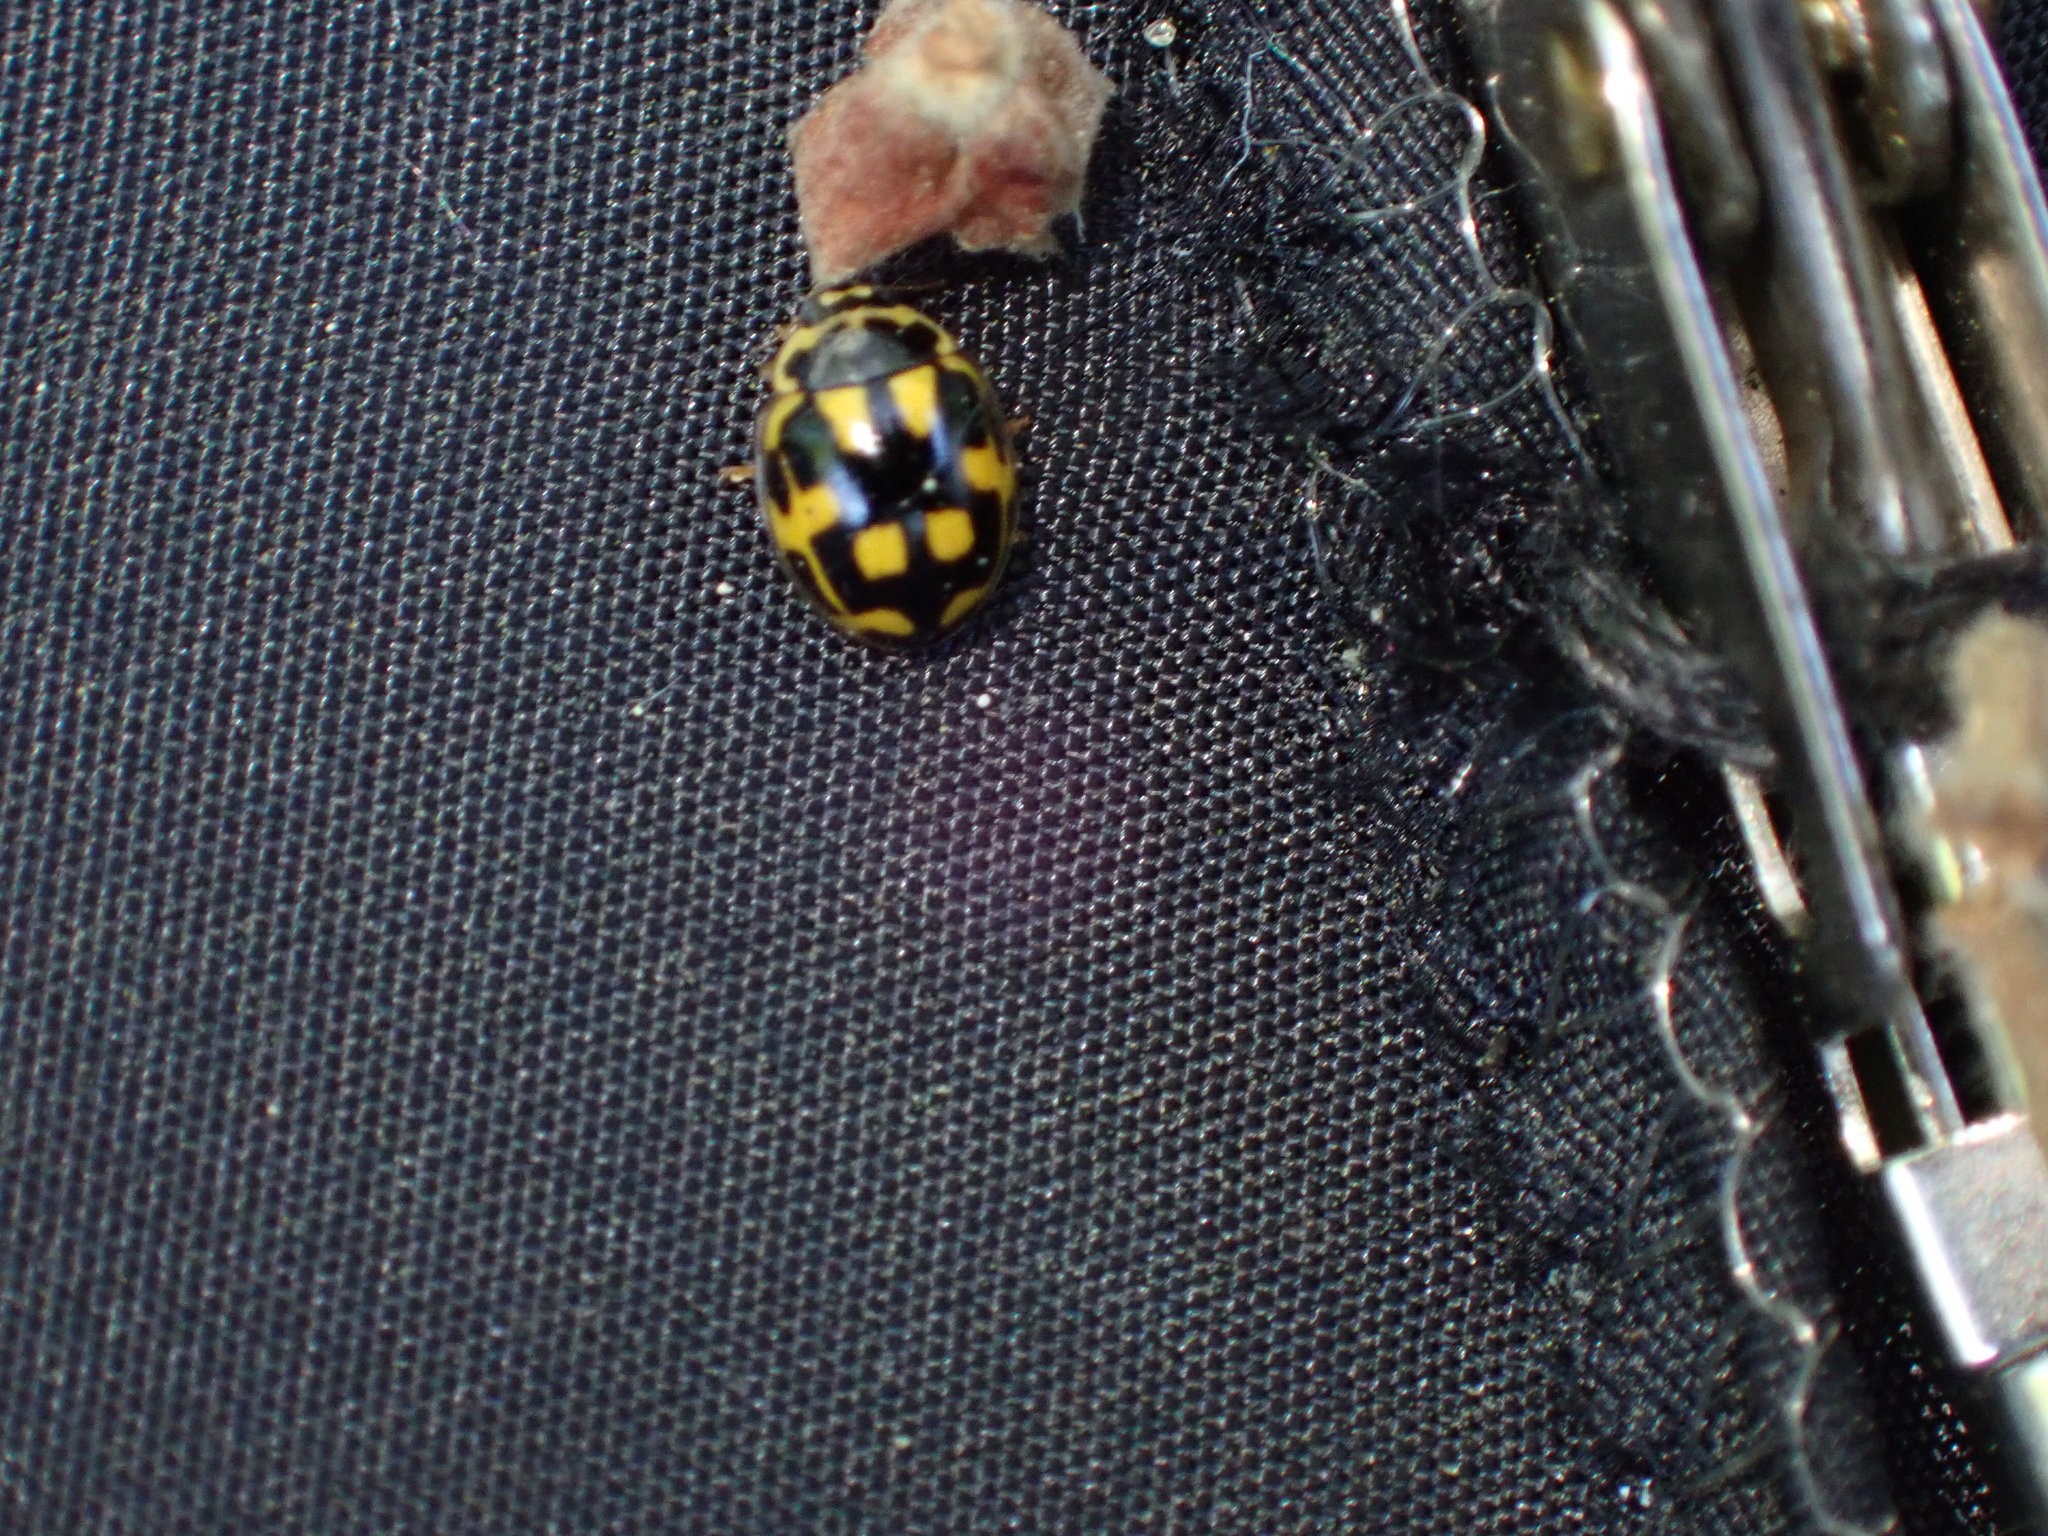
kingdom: Animalia
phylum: Arthropoda
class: Insecta
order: Coleoptera
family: Coccinellidae
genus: Propylaea
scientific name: Propylaea quatuordecimpunctata
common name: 14-spotted ladybird beetle
